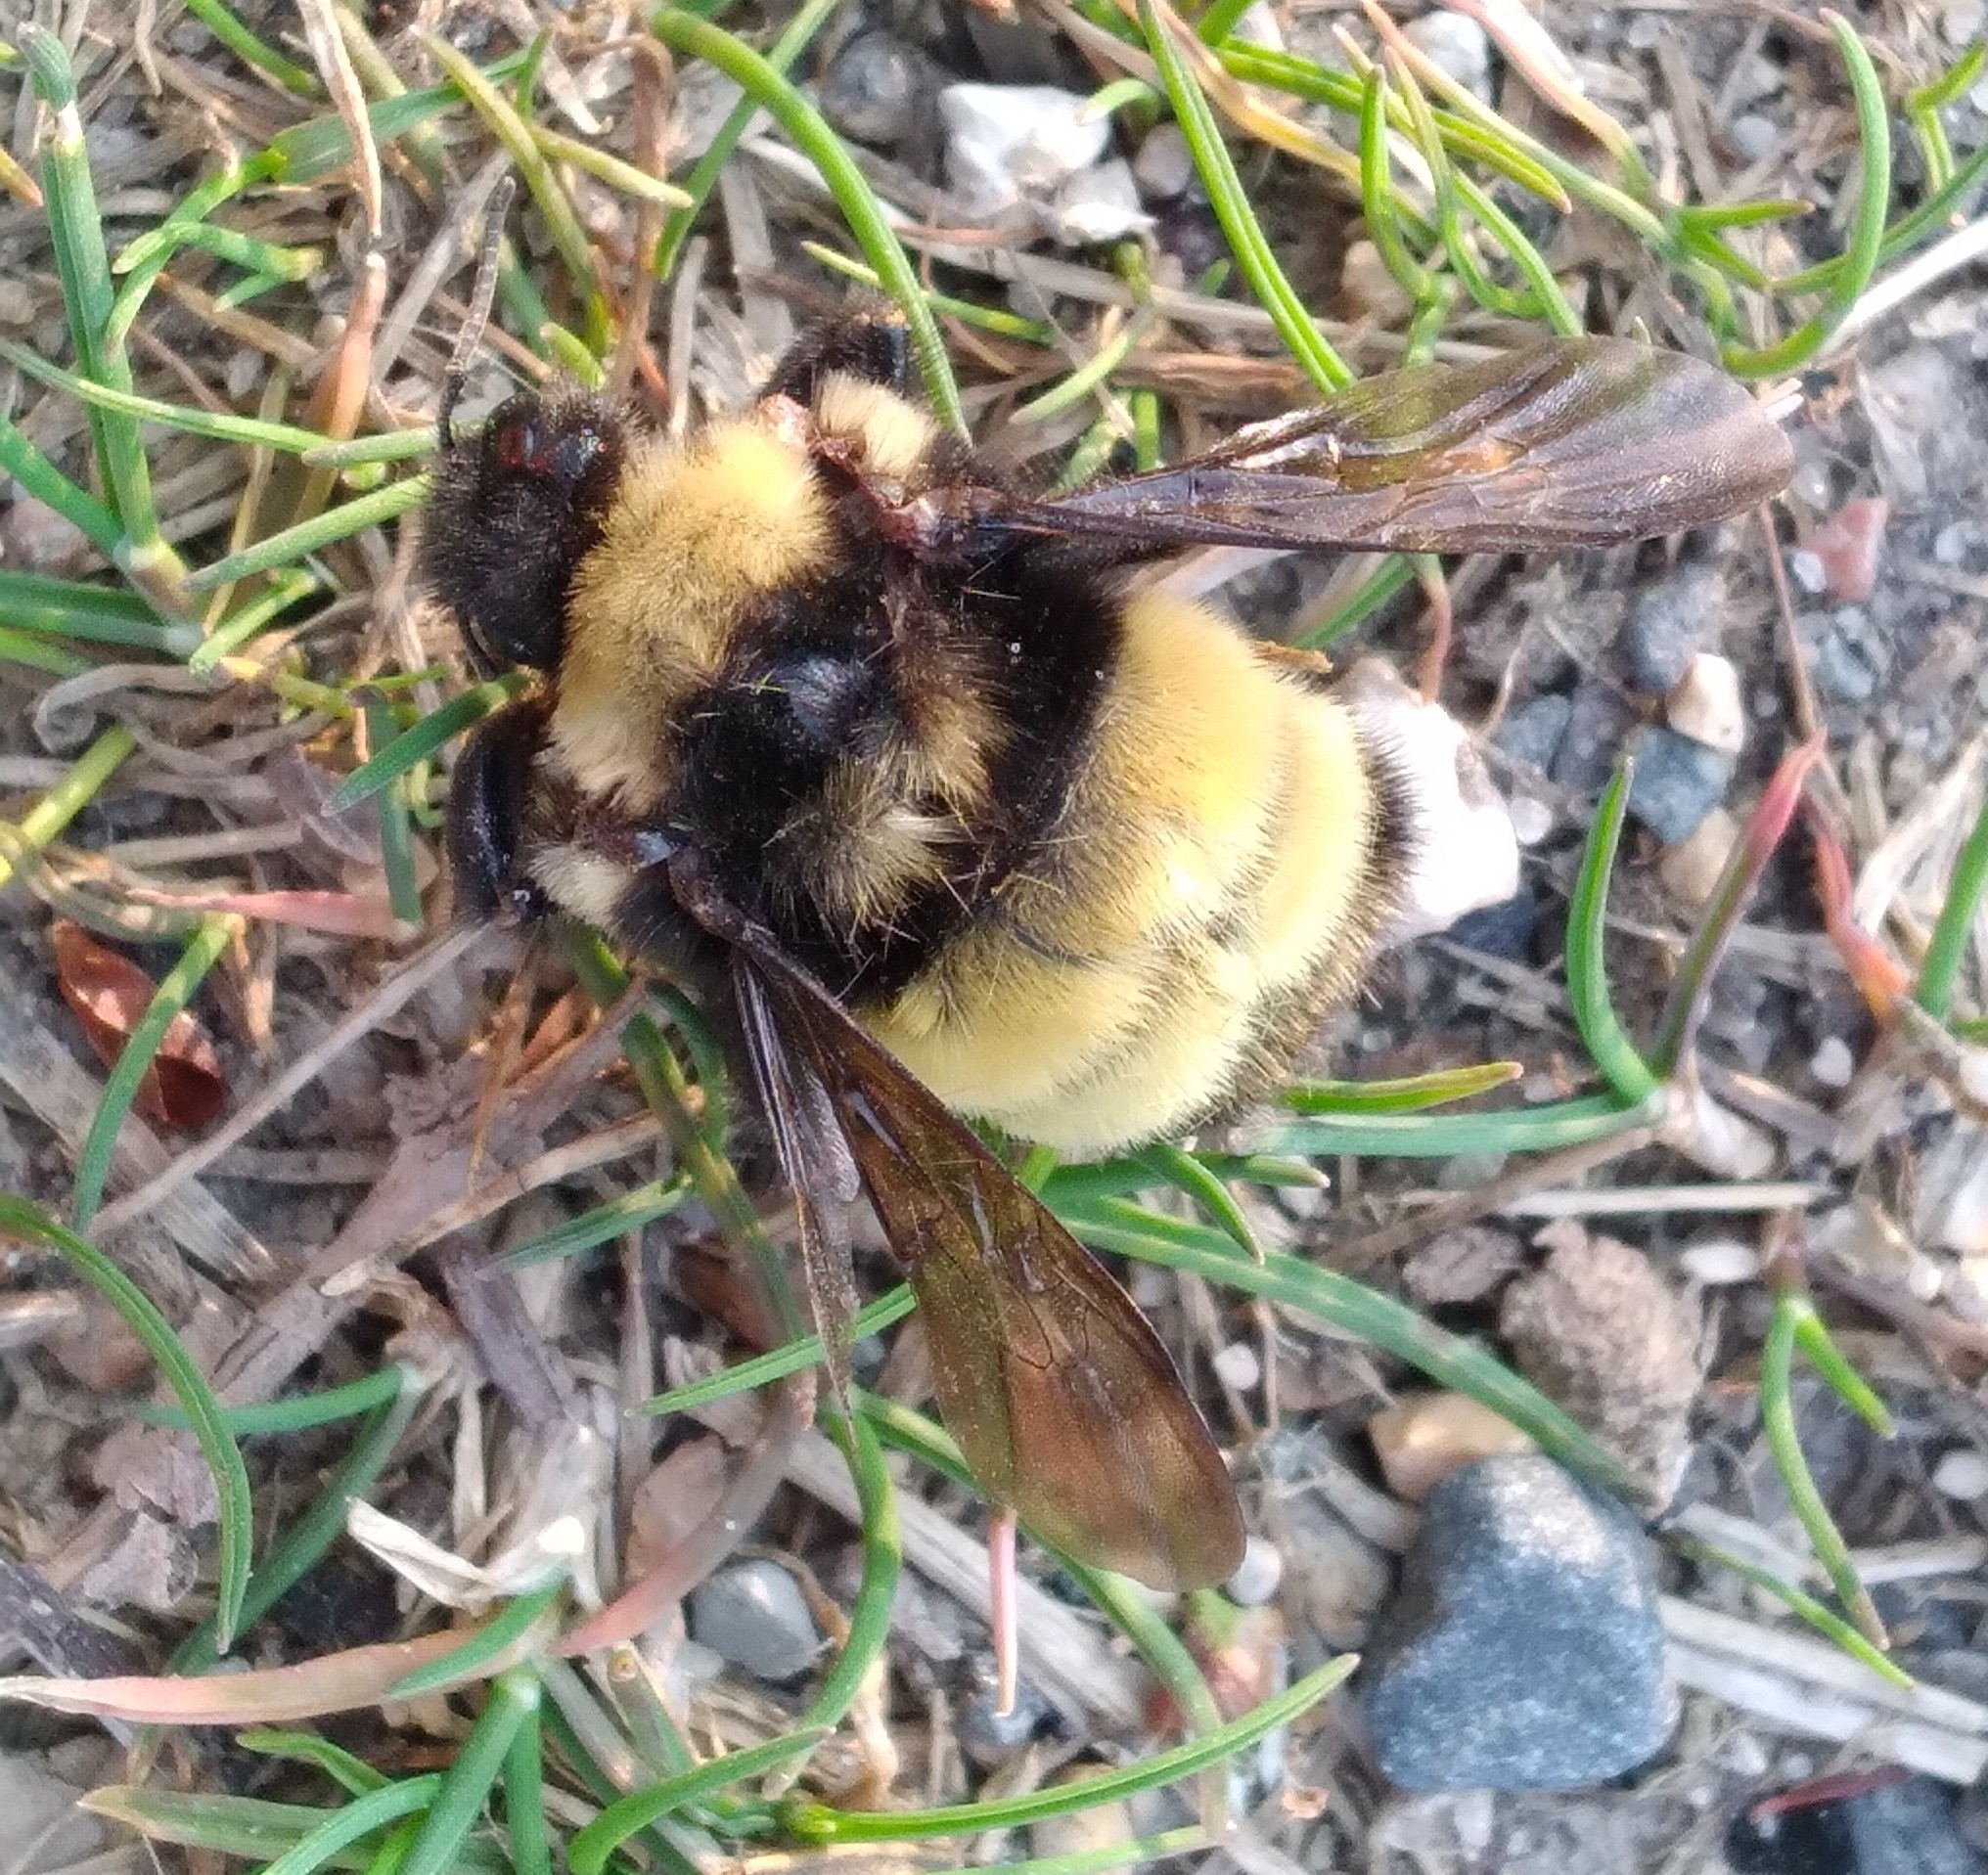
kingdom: Animalia
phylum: Arthropoda
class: Insecta
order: Hymenoptera
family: Apidae
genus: Bombus
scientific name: Bombus terricola
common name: Yellow-banded bumble bee
